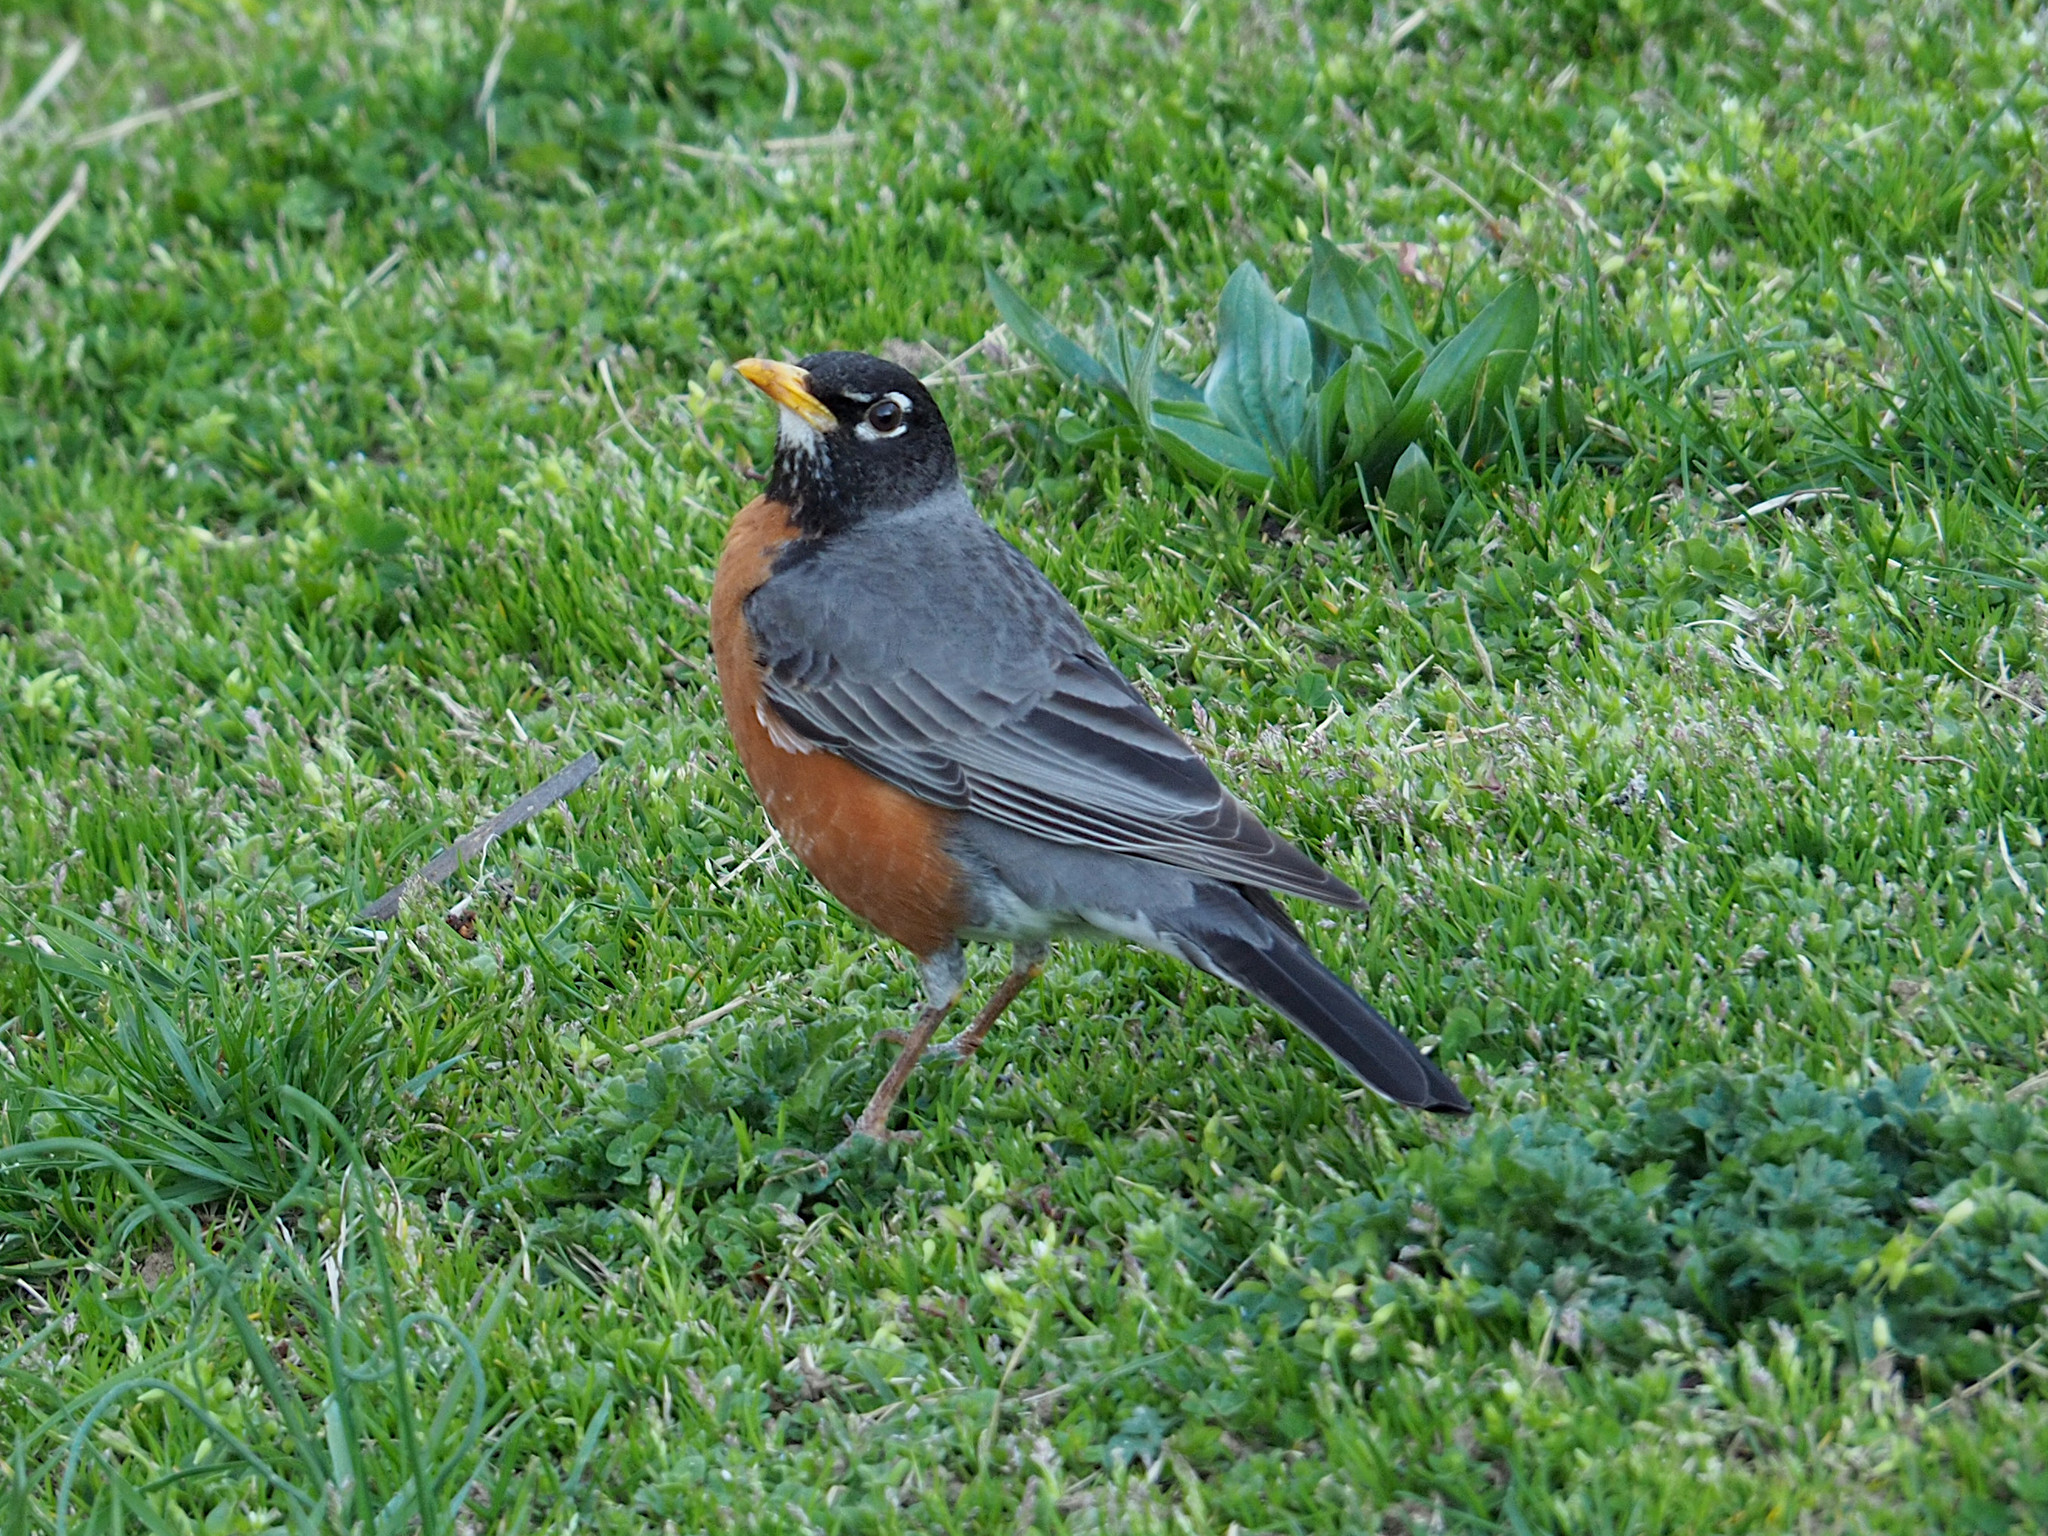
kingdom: Animalia
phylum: Chordata
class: Aves
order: Passeriformes
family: Turdidae
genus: Turdus
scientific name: Turdus migratorius
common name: American robin
